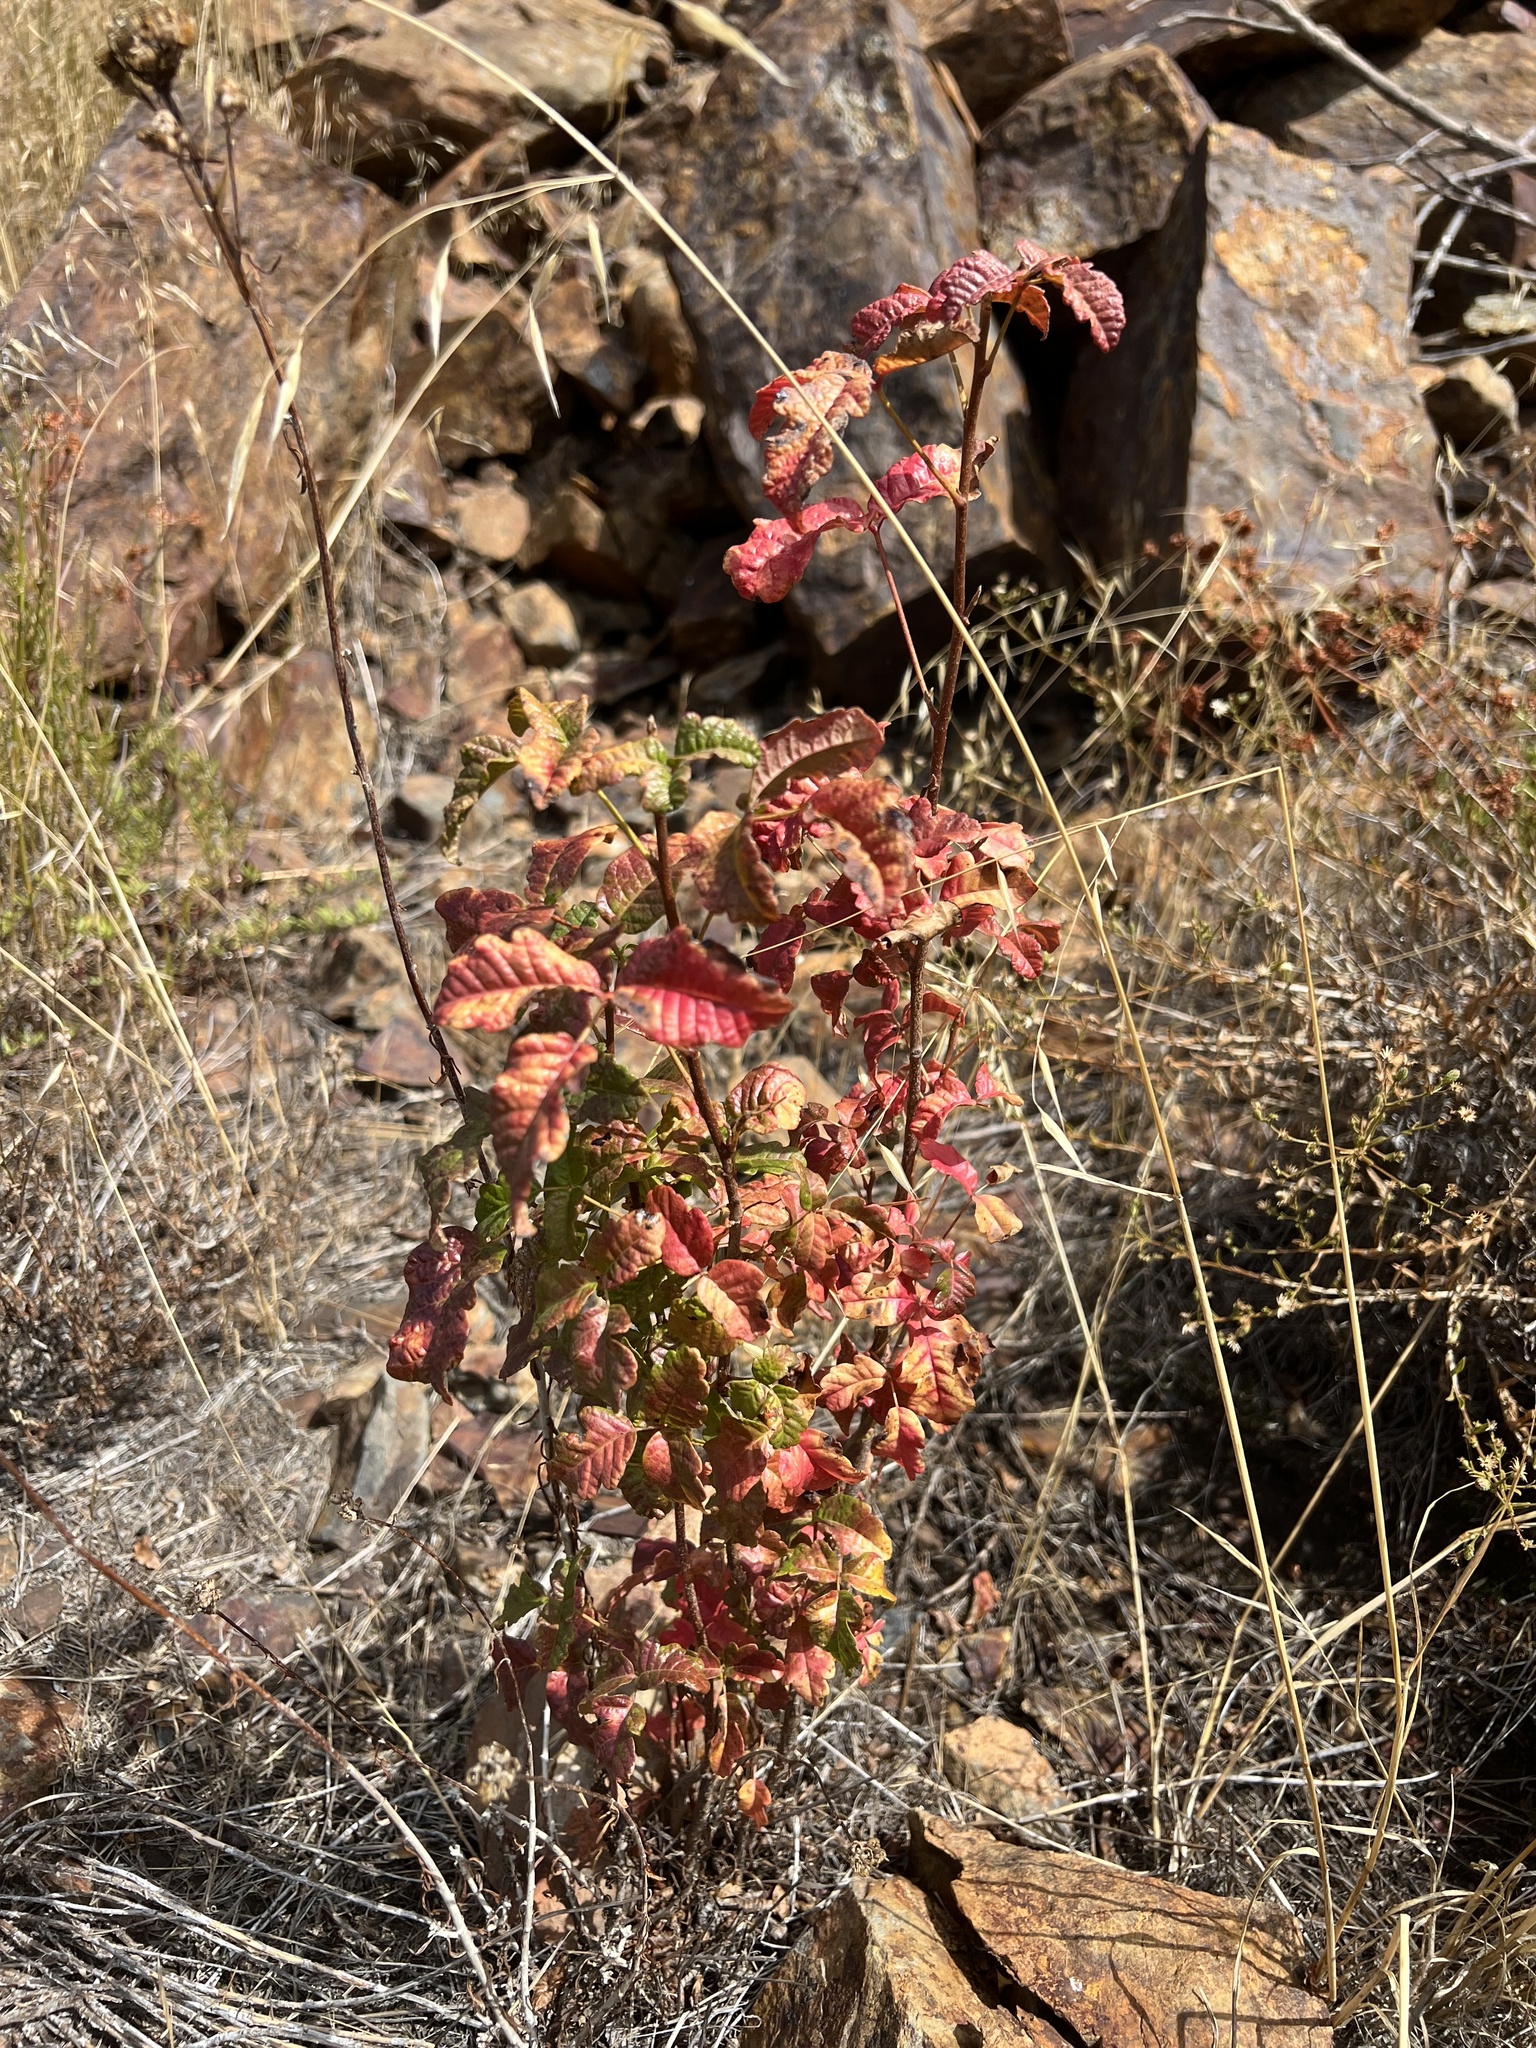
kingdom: Plantae
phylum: Tracheophyta
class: Magnoliopsida
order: Sapindales
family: Anacardiaceae
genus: Toxicodendron
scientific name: Toxicodendron diversilobum
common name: Pacific poison-oak
